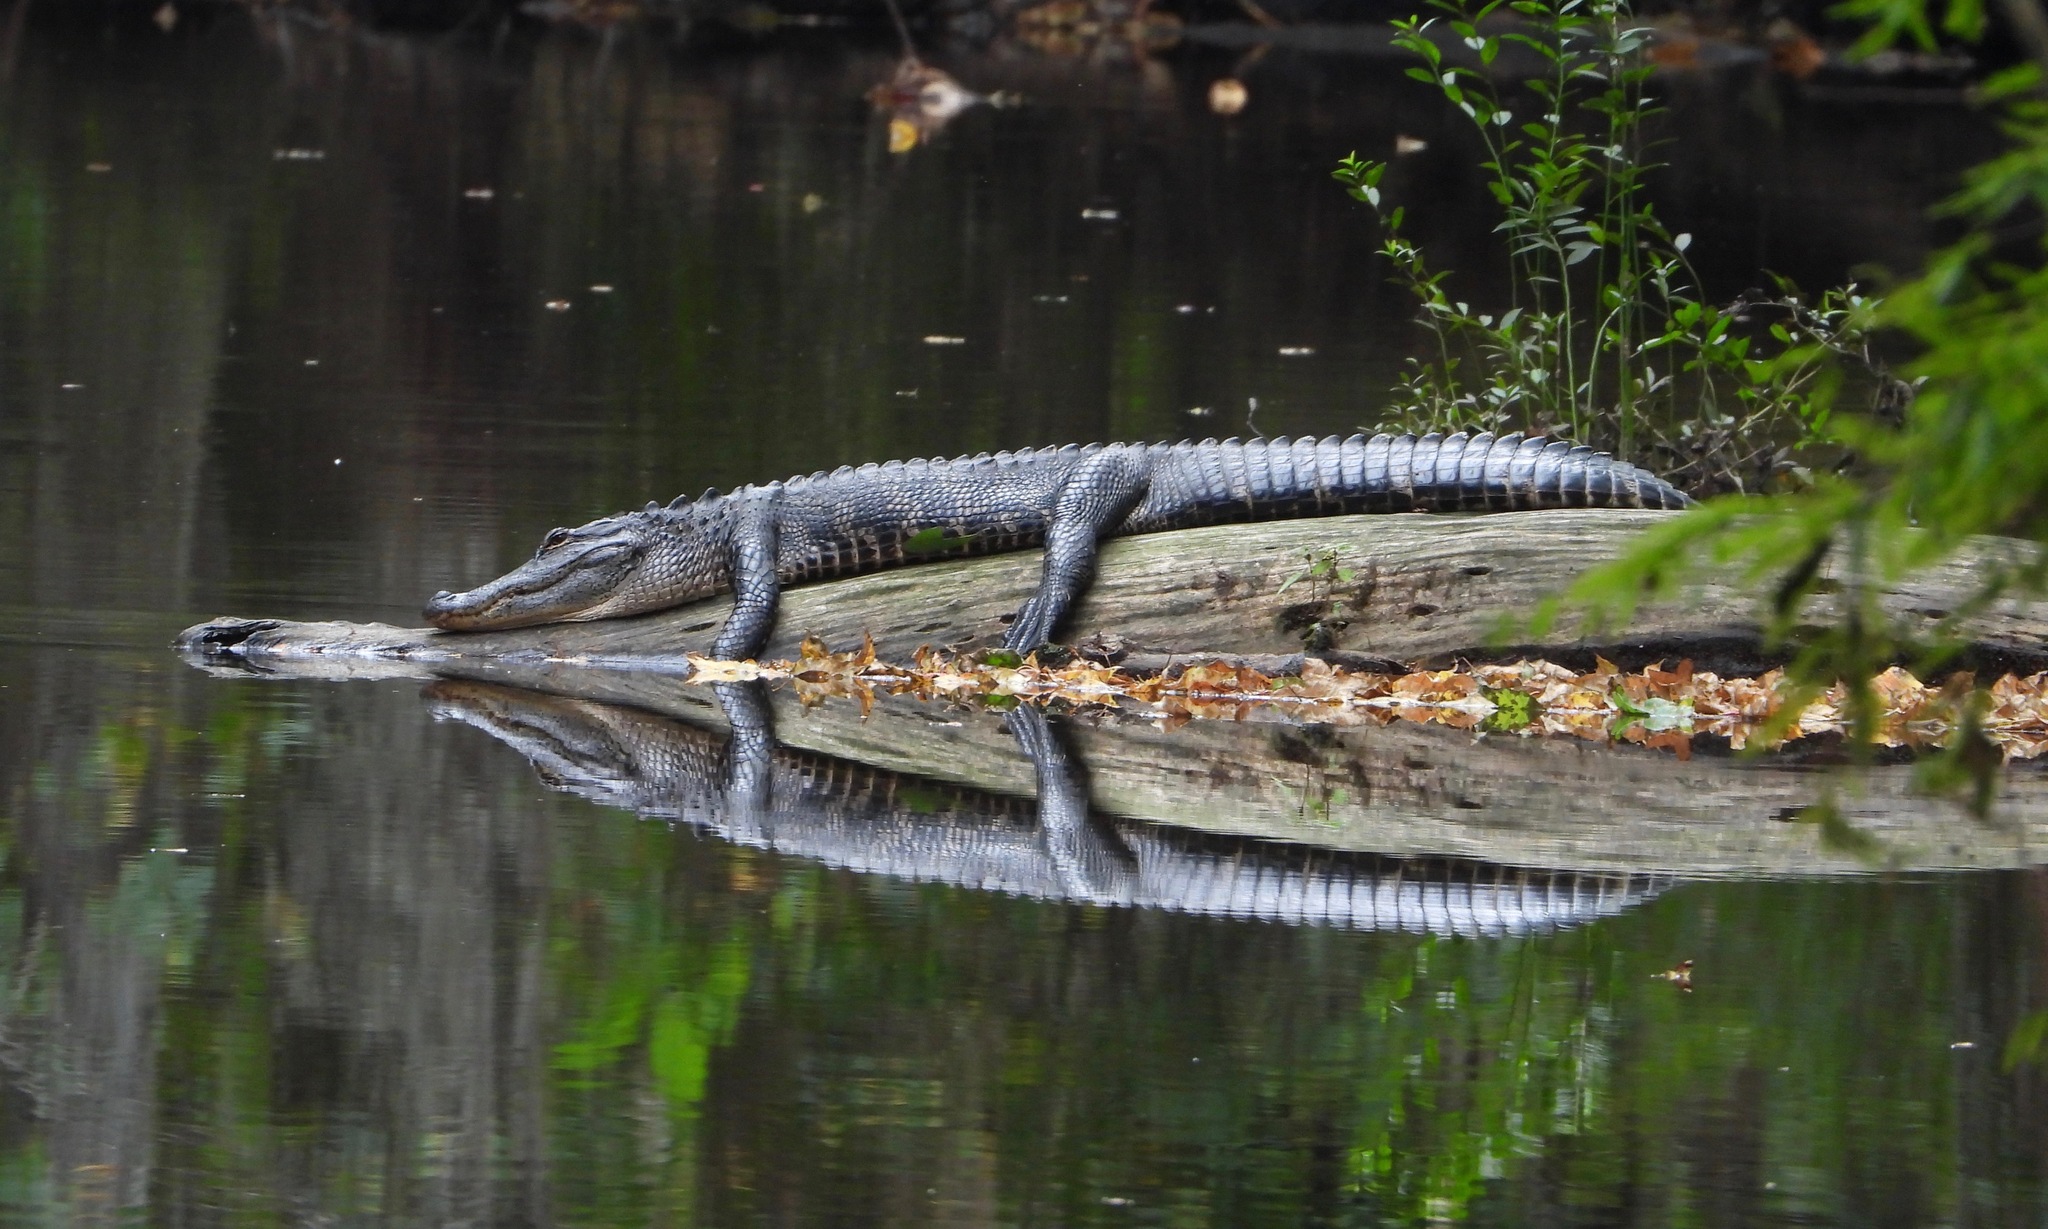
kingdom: Animalia
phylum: Chordata
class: Crocodylia
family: Alligatoridae
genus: Alligator
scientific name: Alligator mississippiensis
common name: American alligator
